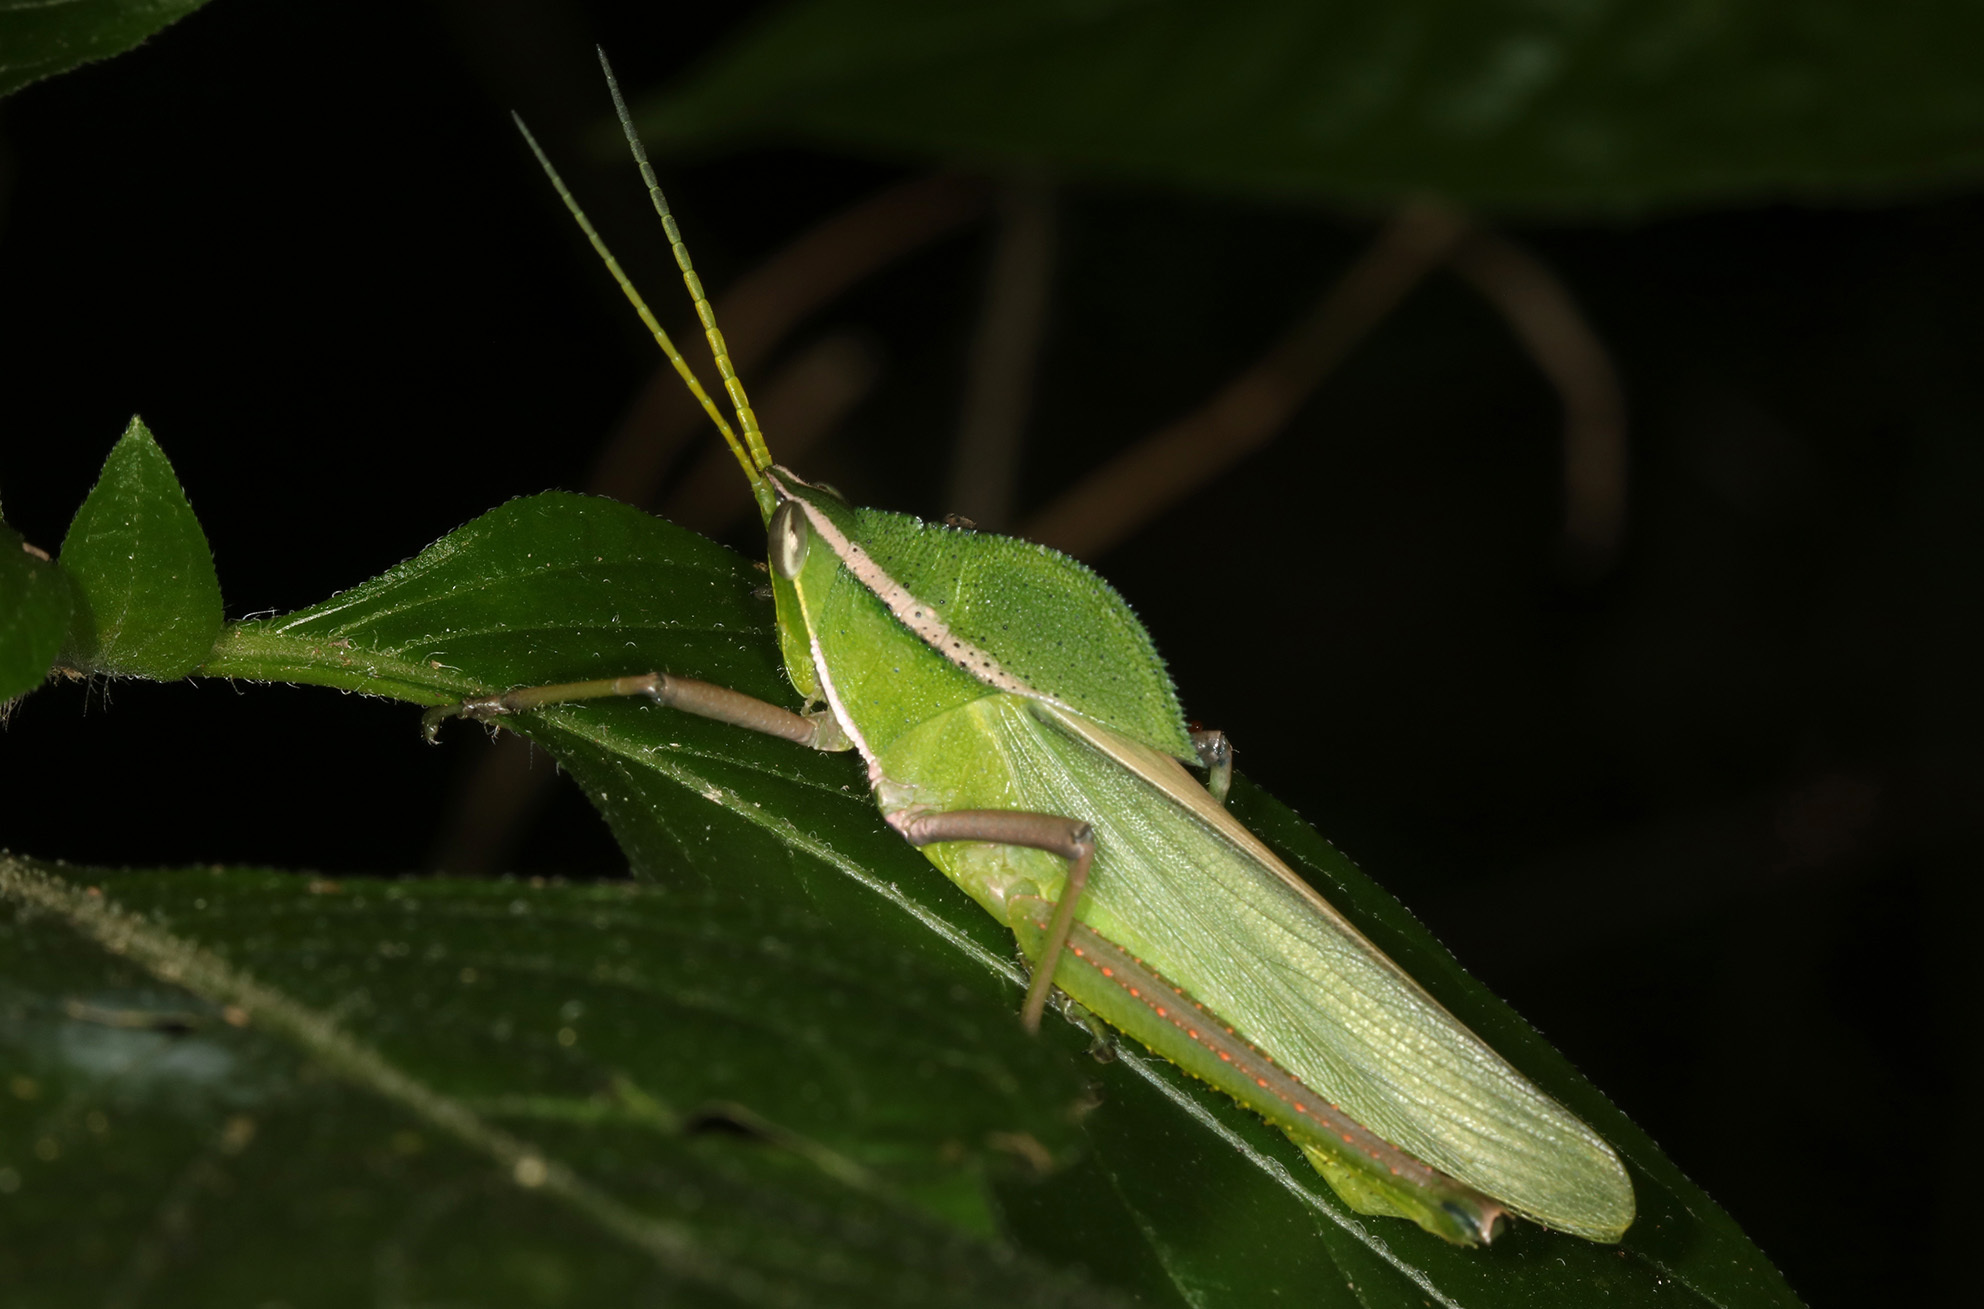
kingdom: Animalia
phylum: Arthropoda
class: Insecta
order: Orthoptera
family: Romaleidae
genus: Prionolopha
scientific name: Prionolopha serrata
